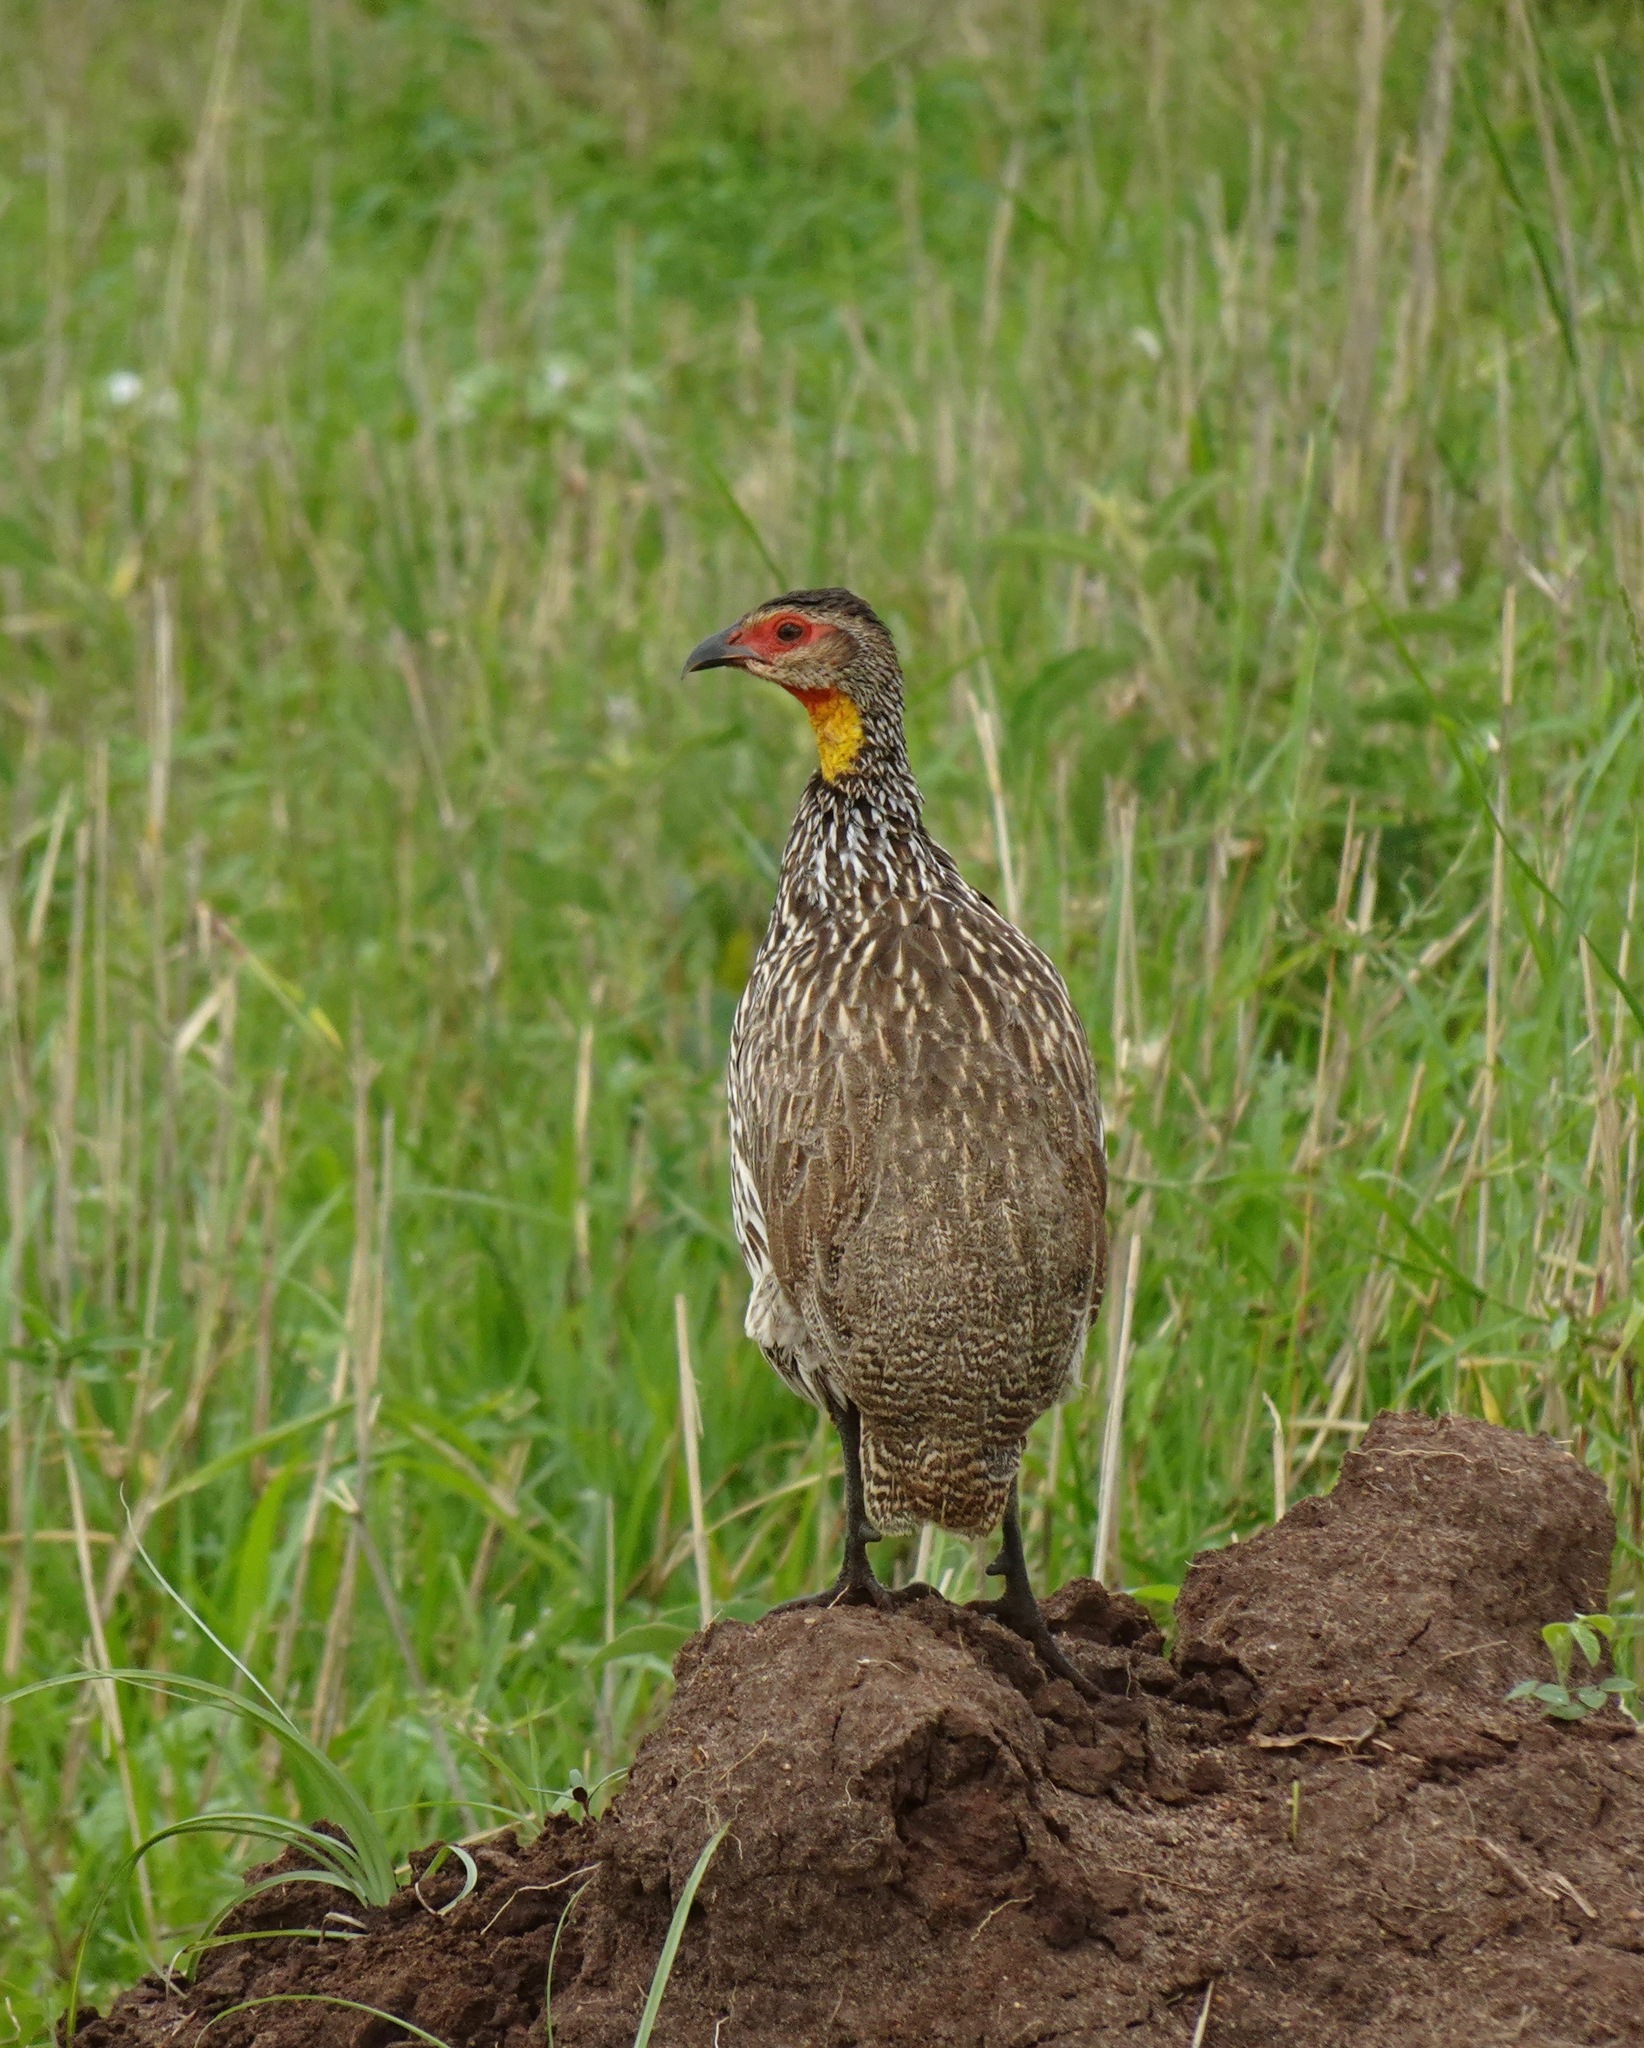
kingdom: Animalia
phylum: Chordata
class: Aves
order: Galliformes
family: Phasianidae
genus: Pternistis
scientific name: Pternistis leucoscepus
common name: Yellow-necked spurfowl
